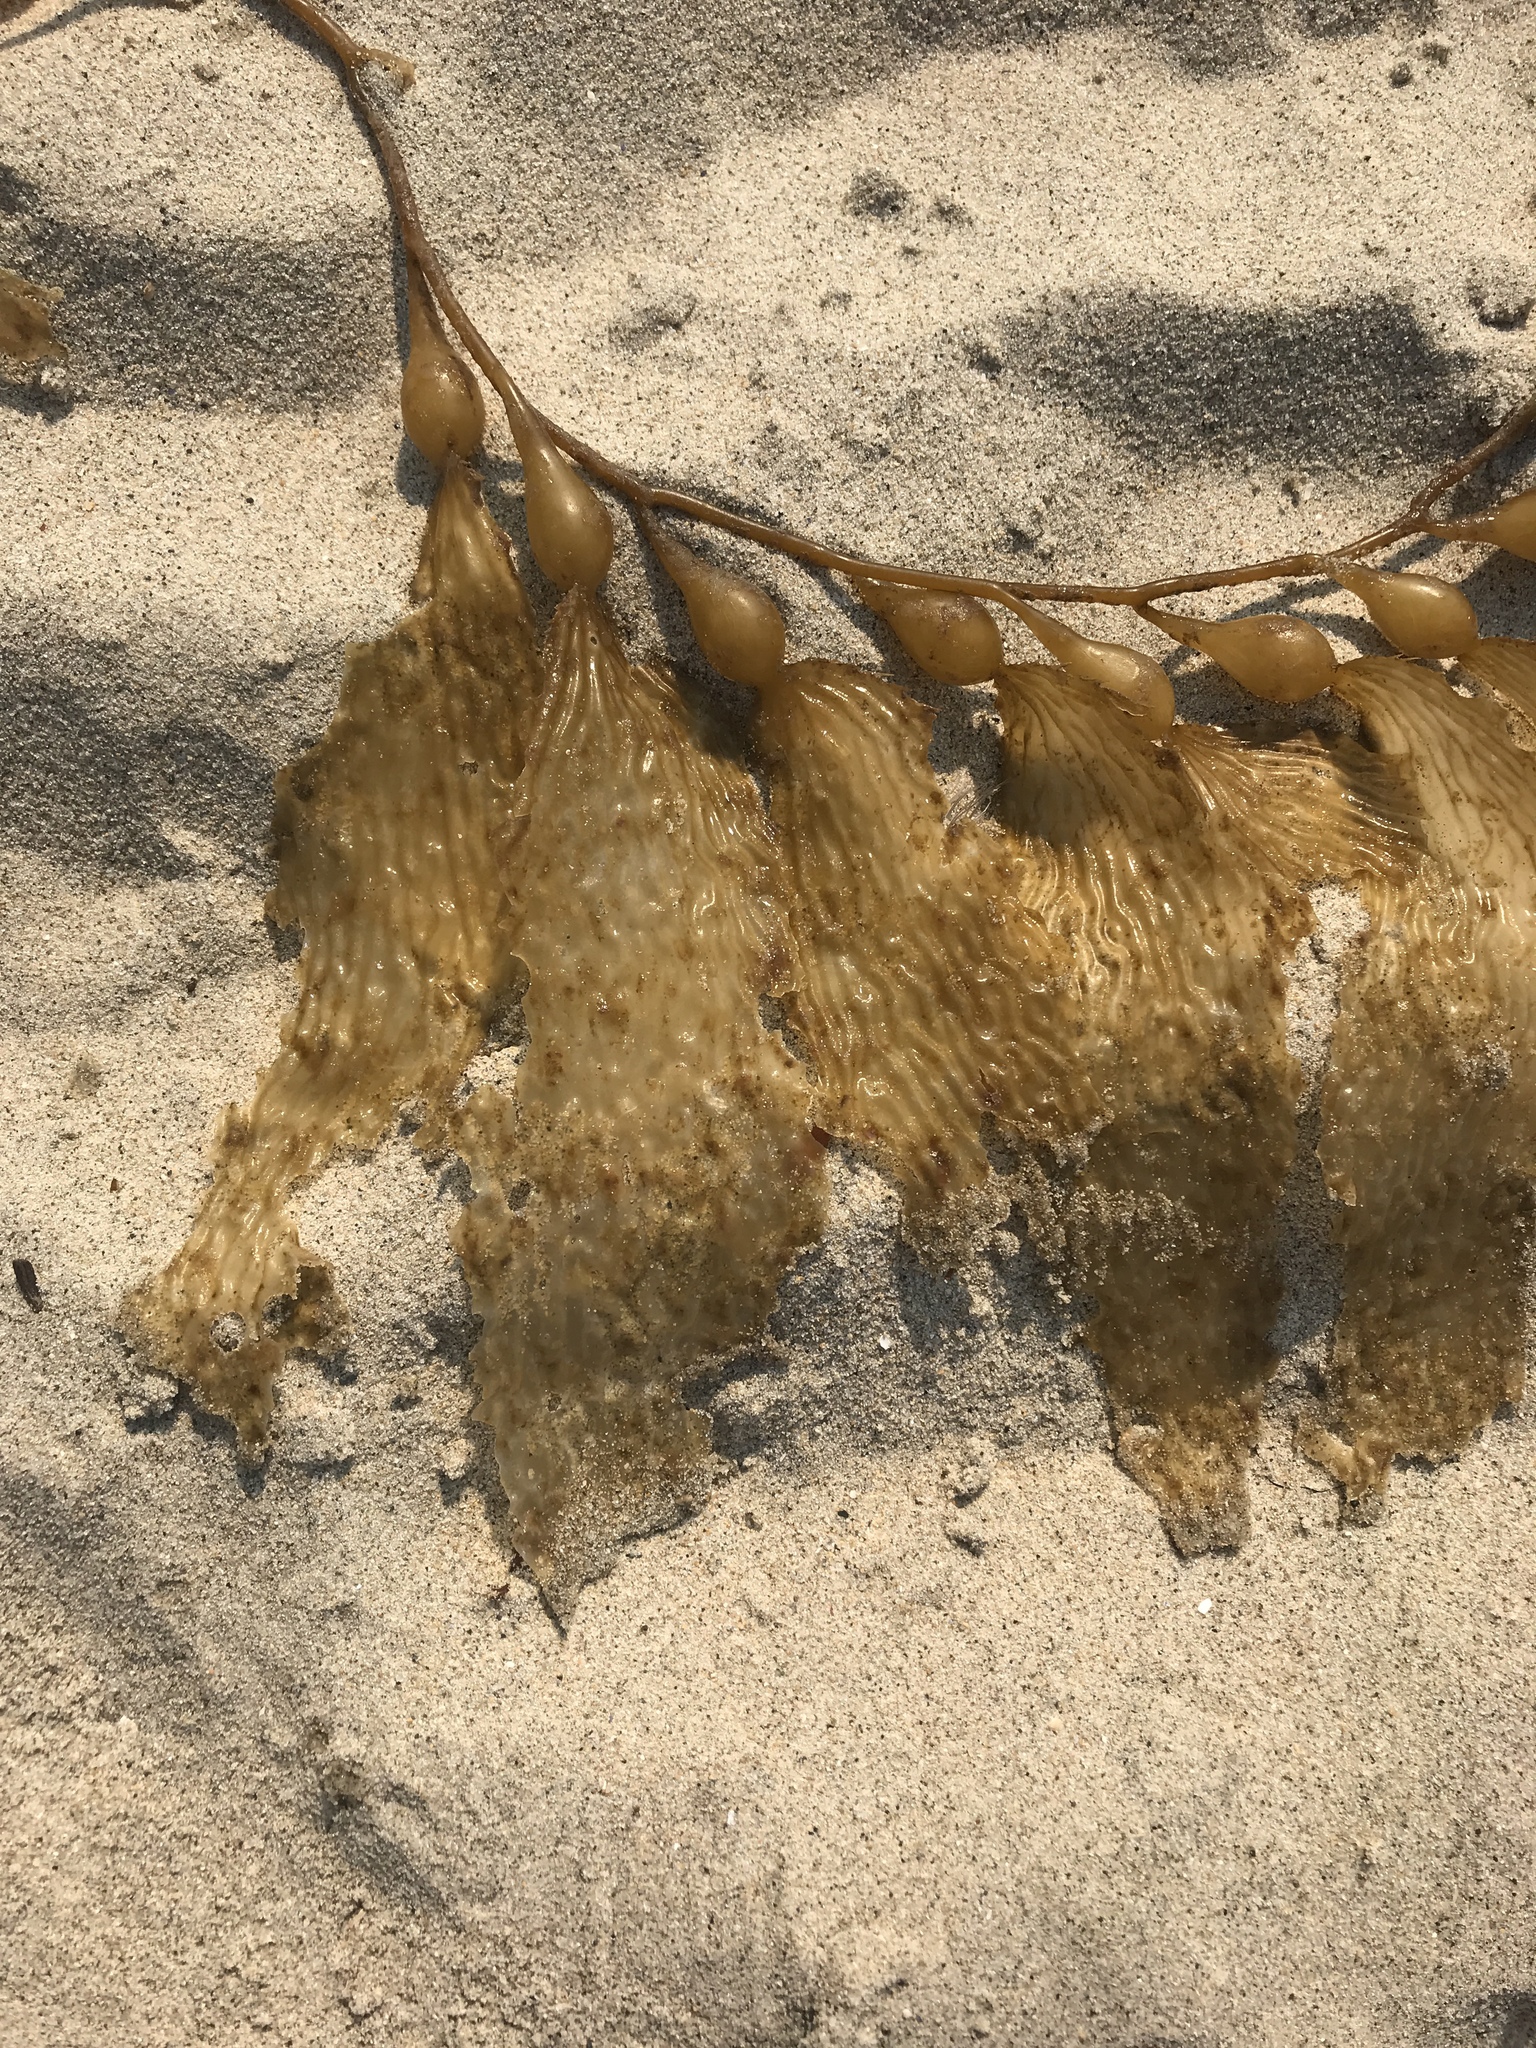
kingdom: Chromista
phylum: Ochrophyta
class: Phaeophyceae
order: Laminariales
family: Laminariaceae
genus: Macrocystis
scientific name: Macrocystis pyrifera
